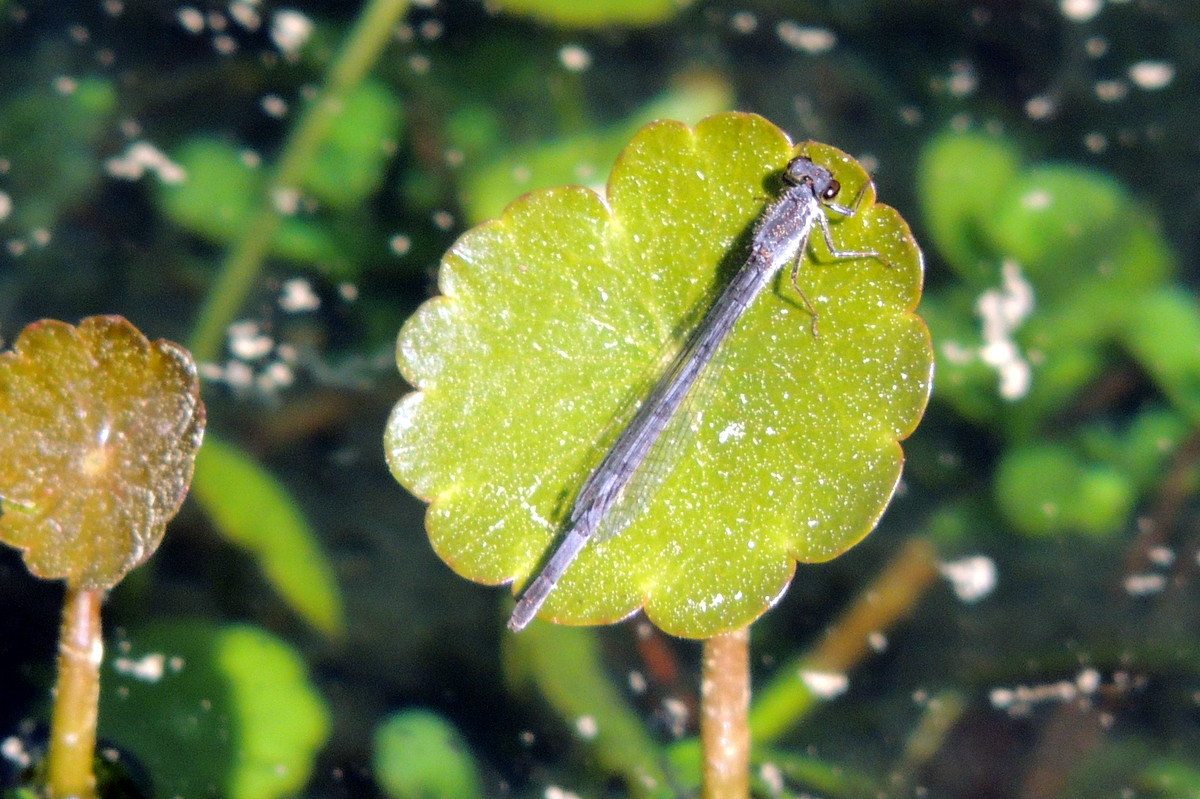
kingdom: Animalia
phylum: Arthropoda
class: Insecta
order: Odonata
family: Coenagrionidae
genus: Ischnura
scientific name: Ischnura posita
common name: Fragile forktail
